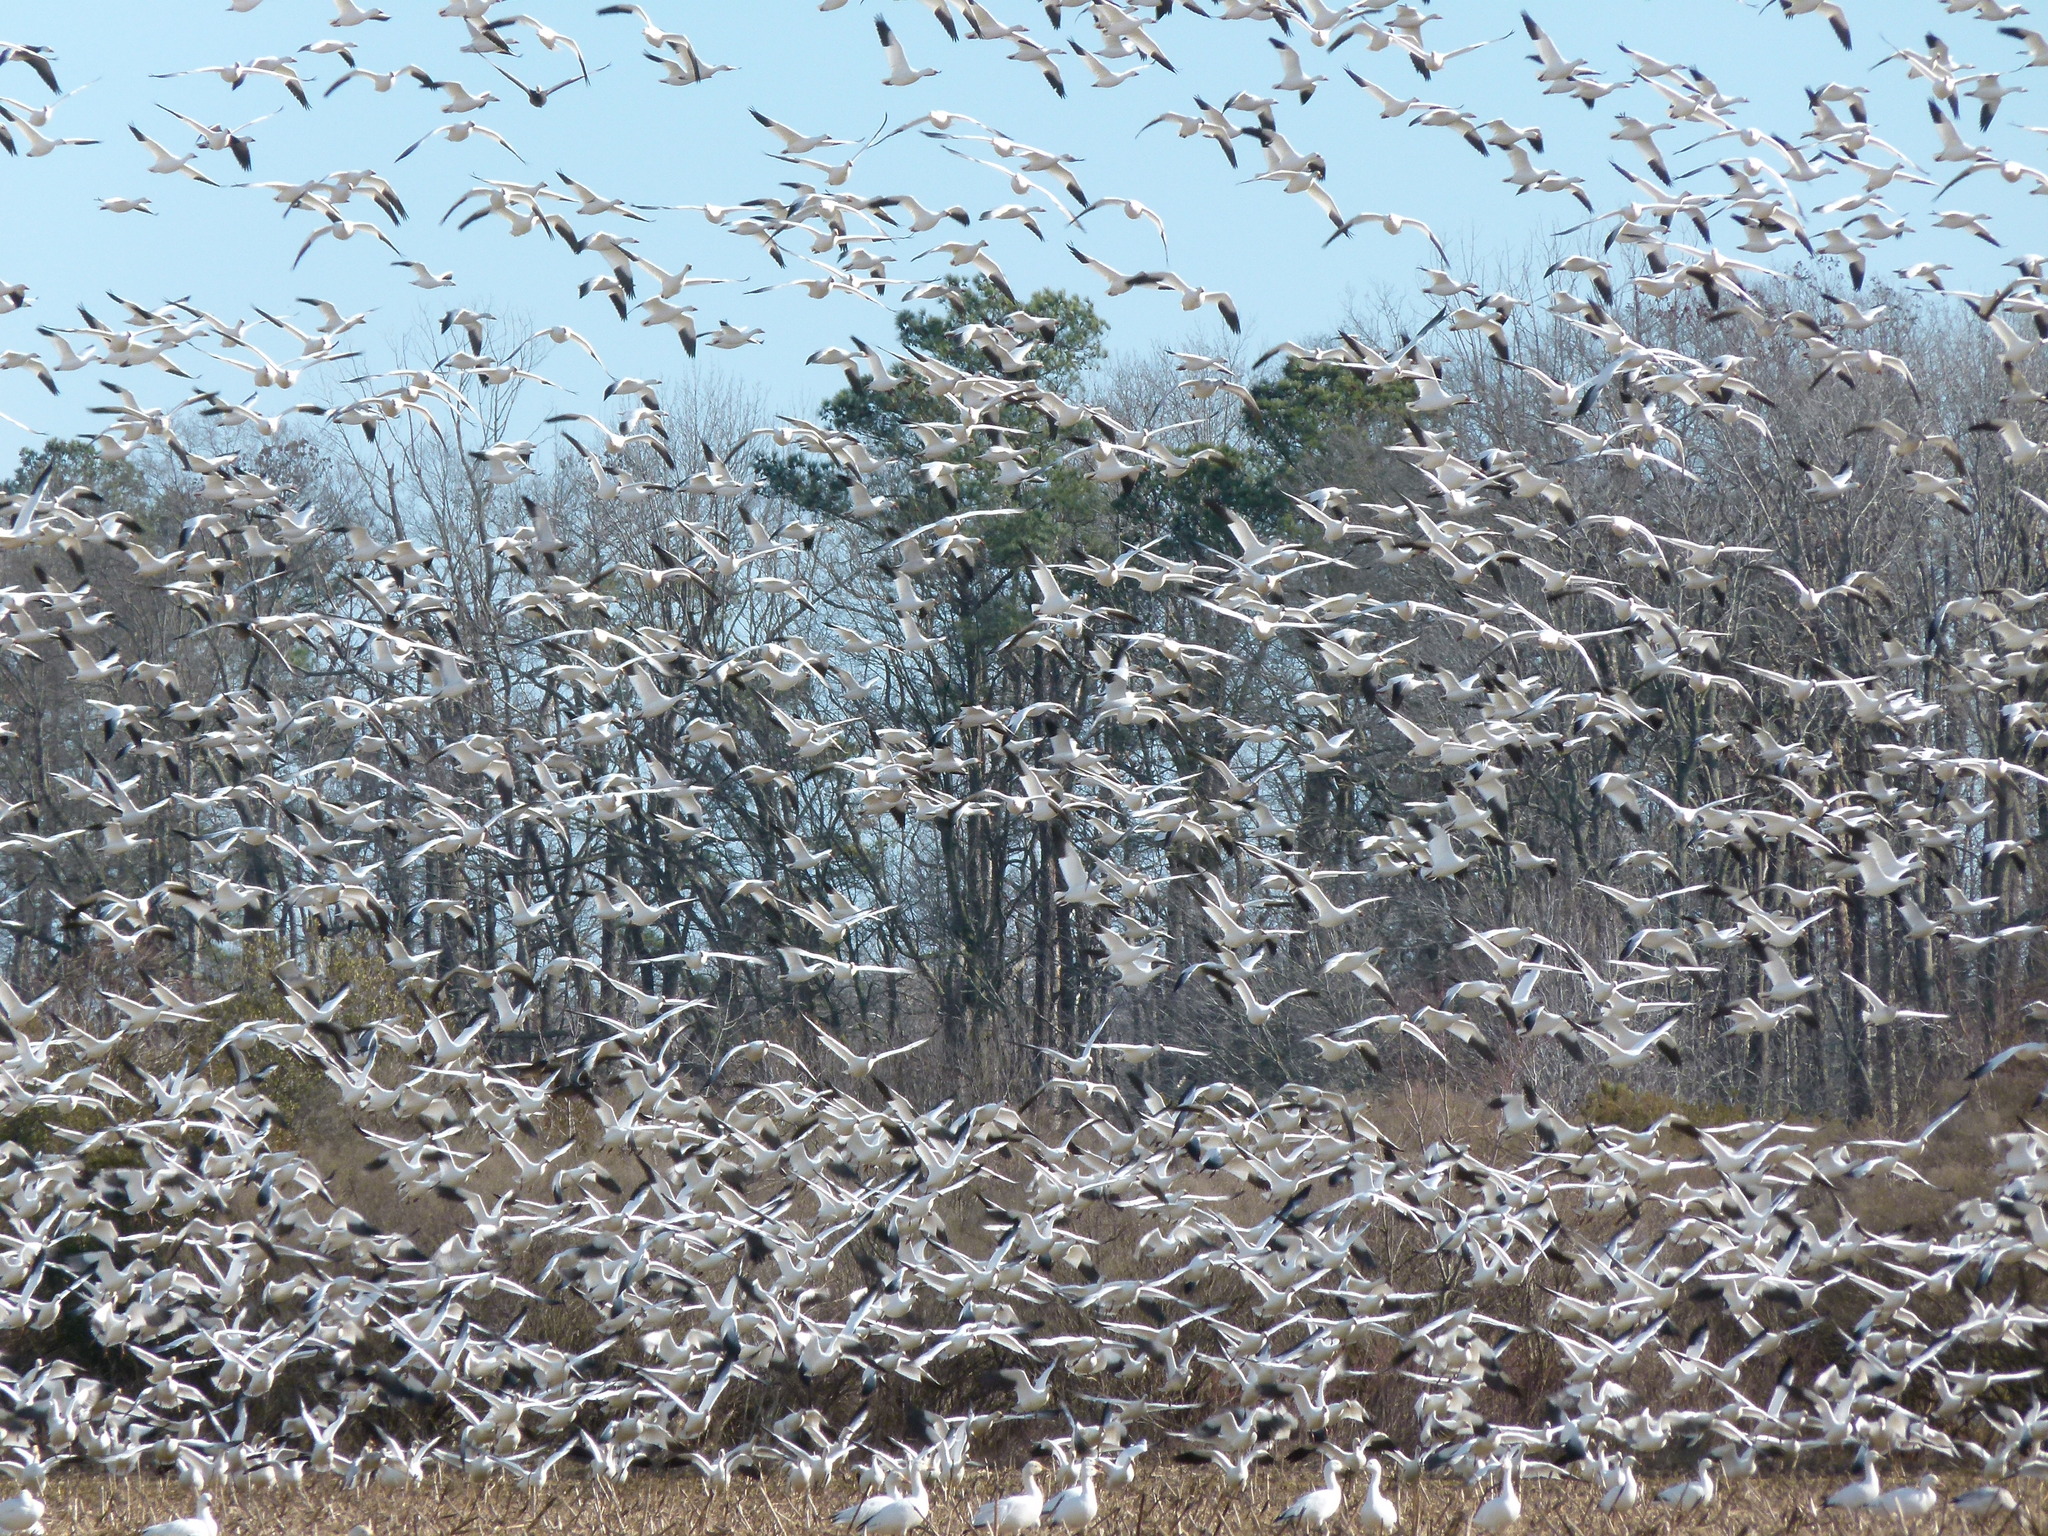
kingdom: Animalia
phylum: Chordata
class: Aves
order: Anseriformes
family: Anatidae
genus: Anser
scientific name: Anser caerulescens
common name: Snow goose
